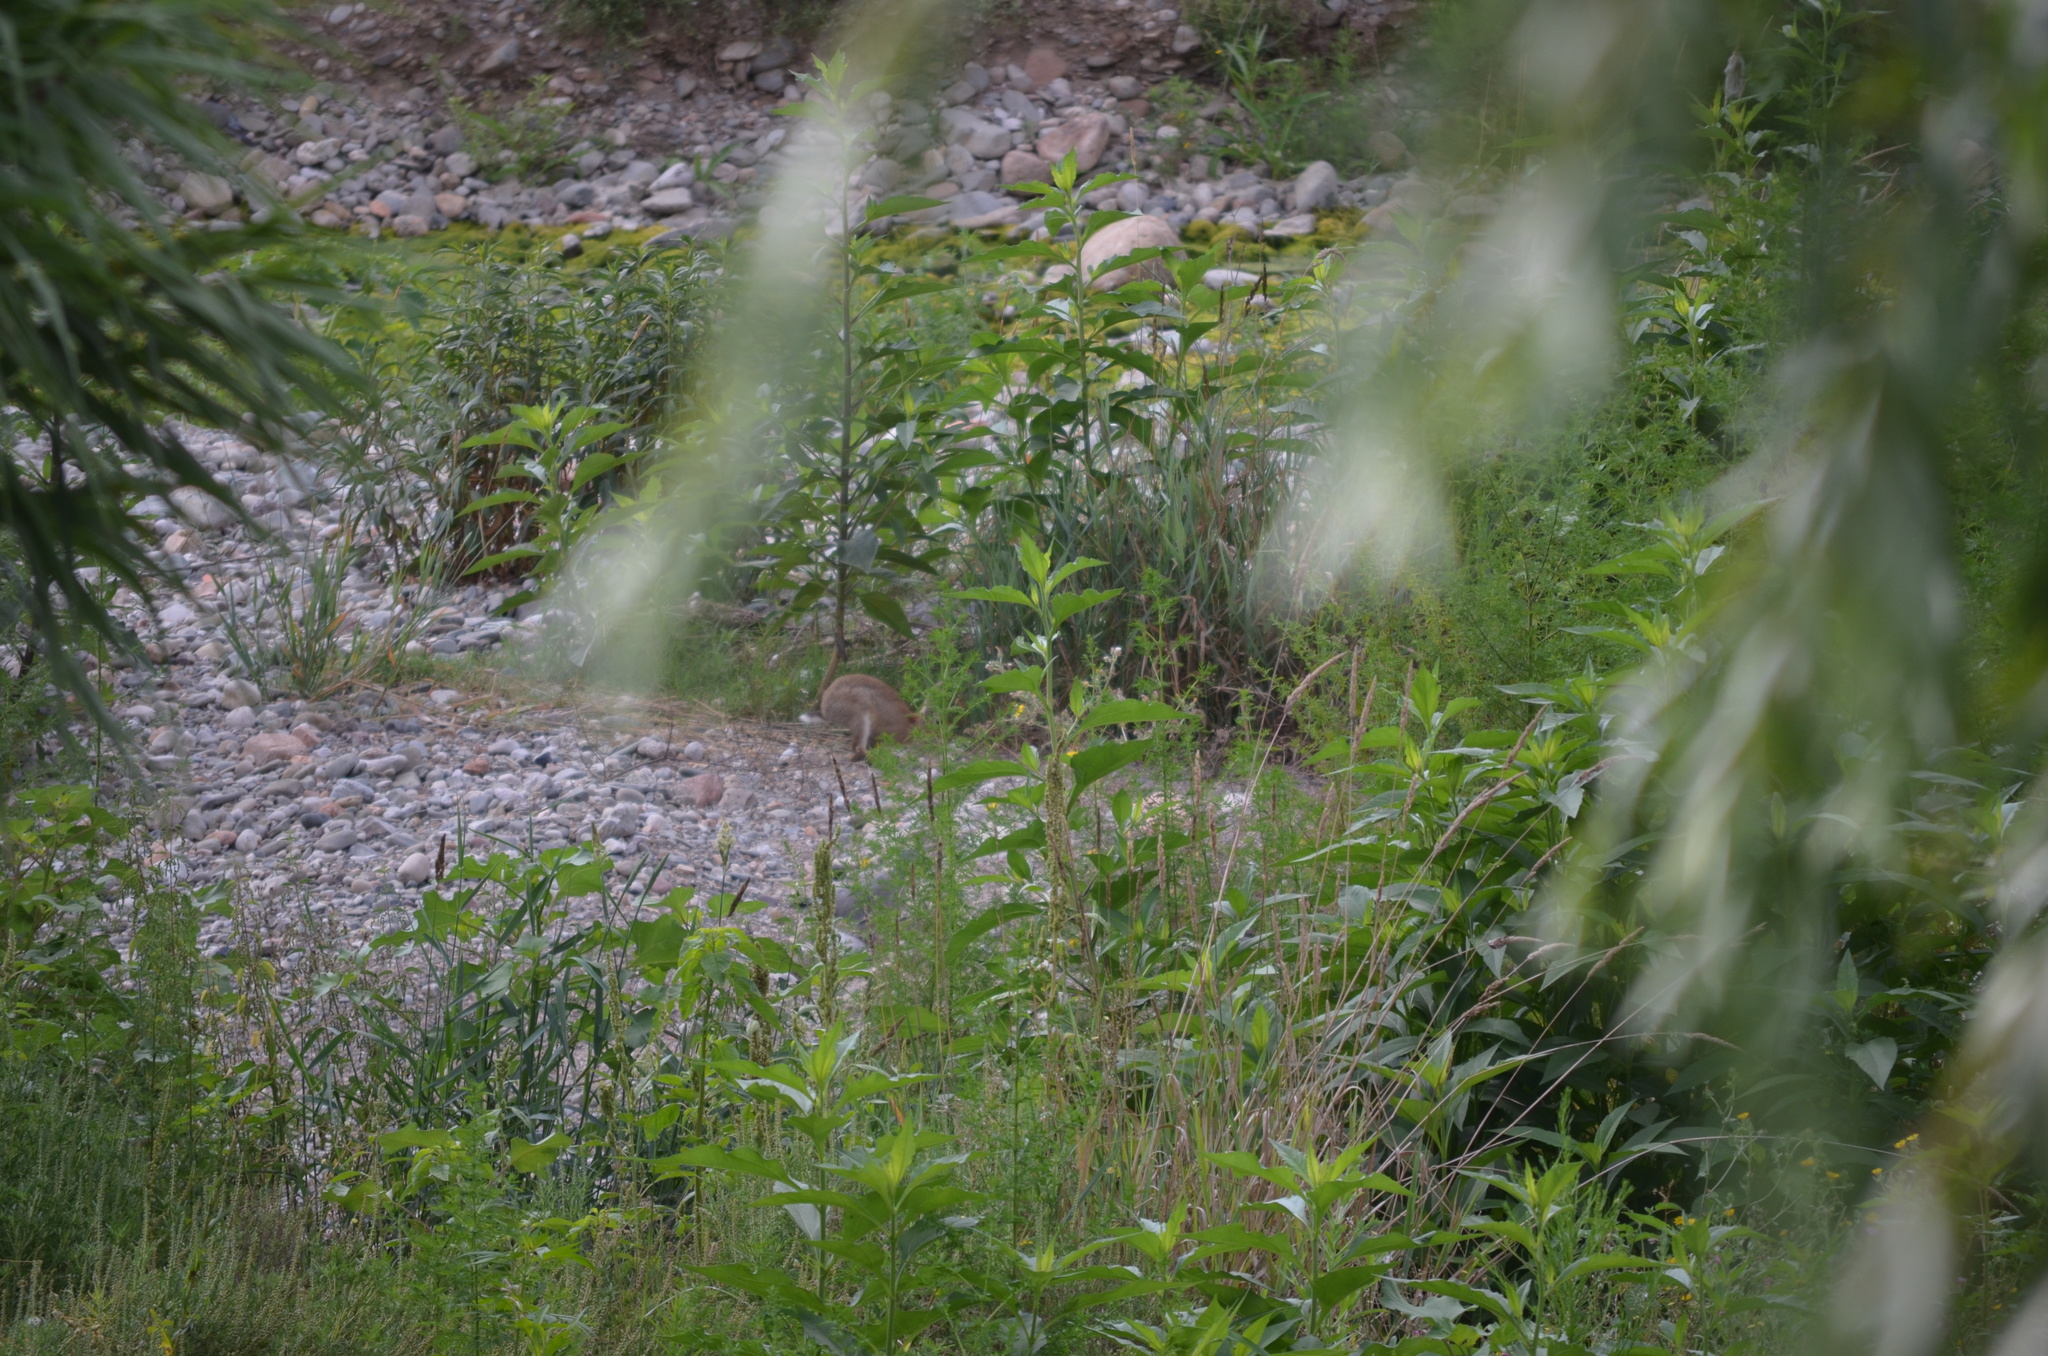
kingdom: Animalia
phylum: Chordata
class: Mammalia
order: Lagomorpha
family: Leporidae
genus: Oryctolagus
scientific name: Oryctolagus cuniculus
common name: European rabbit
